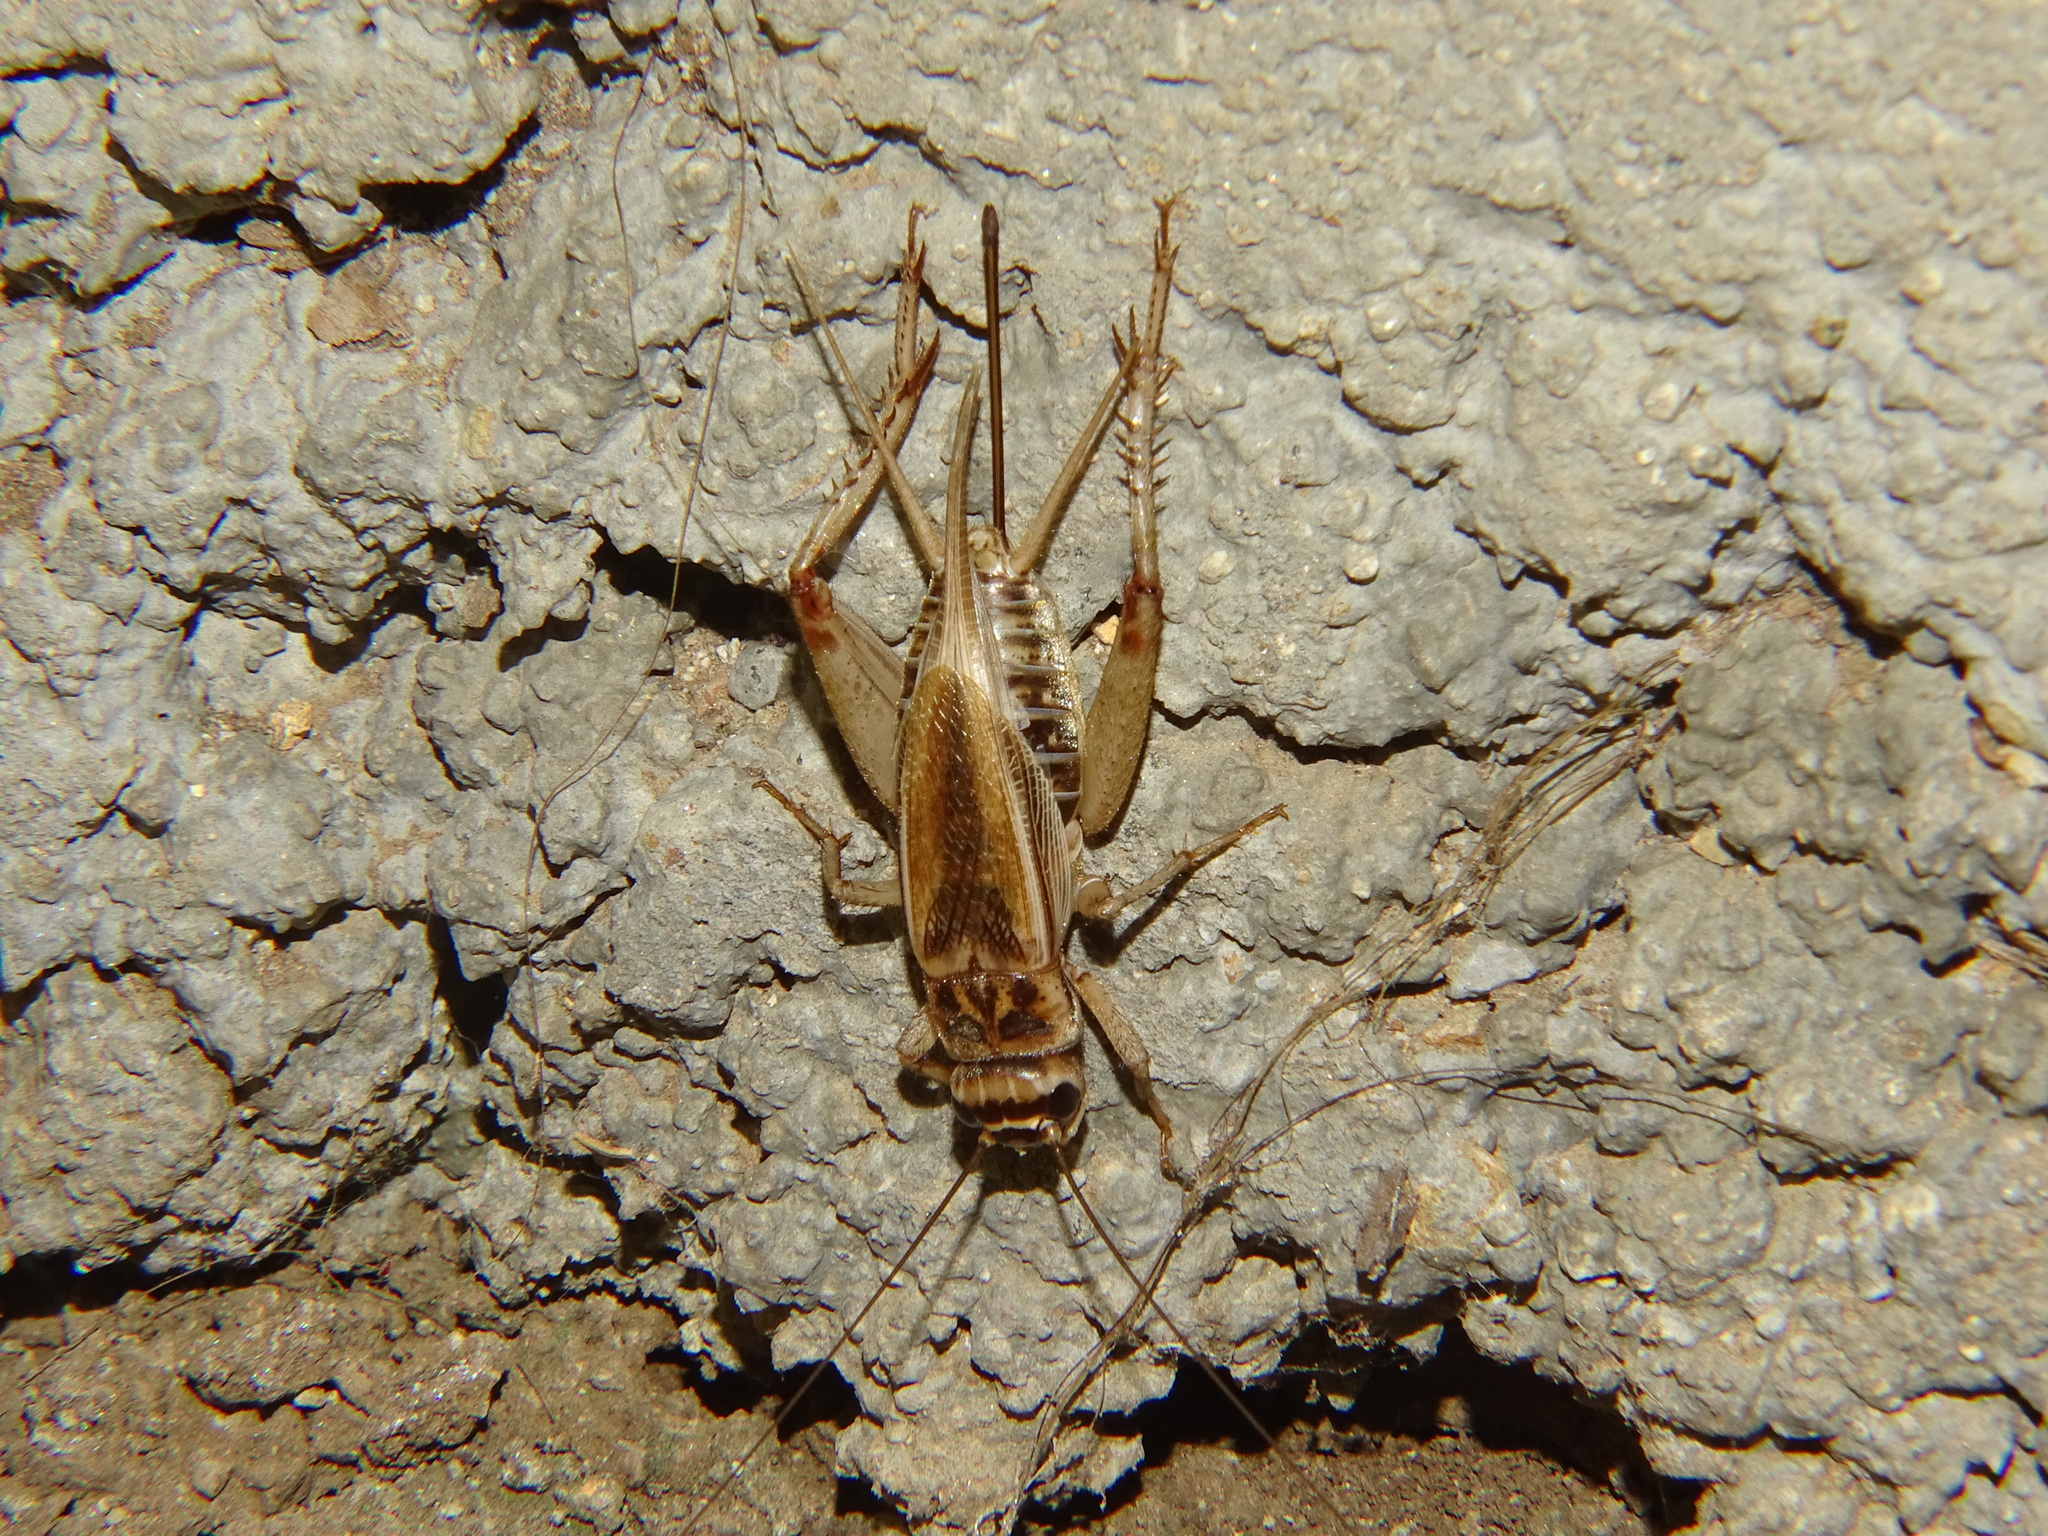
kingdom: Animalia
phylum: Arthropoda
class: Insecta
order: Orthoptera
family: Gryllidae
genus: Acheta
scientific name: Acheta domesticus
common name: House cricket
